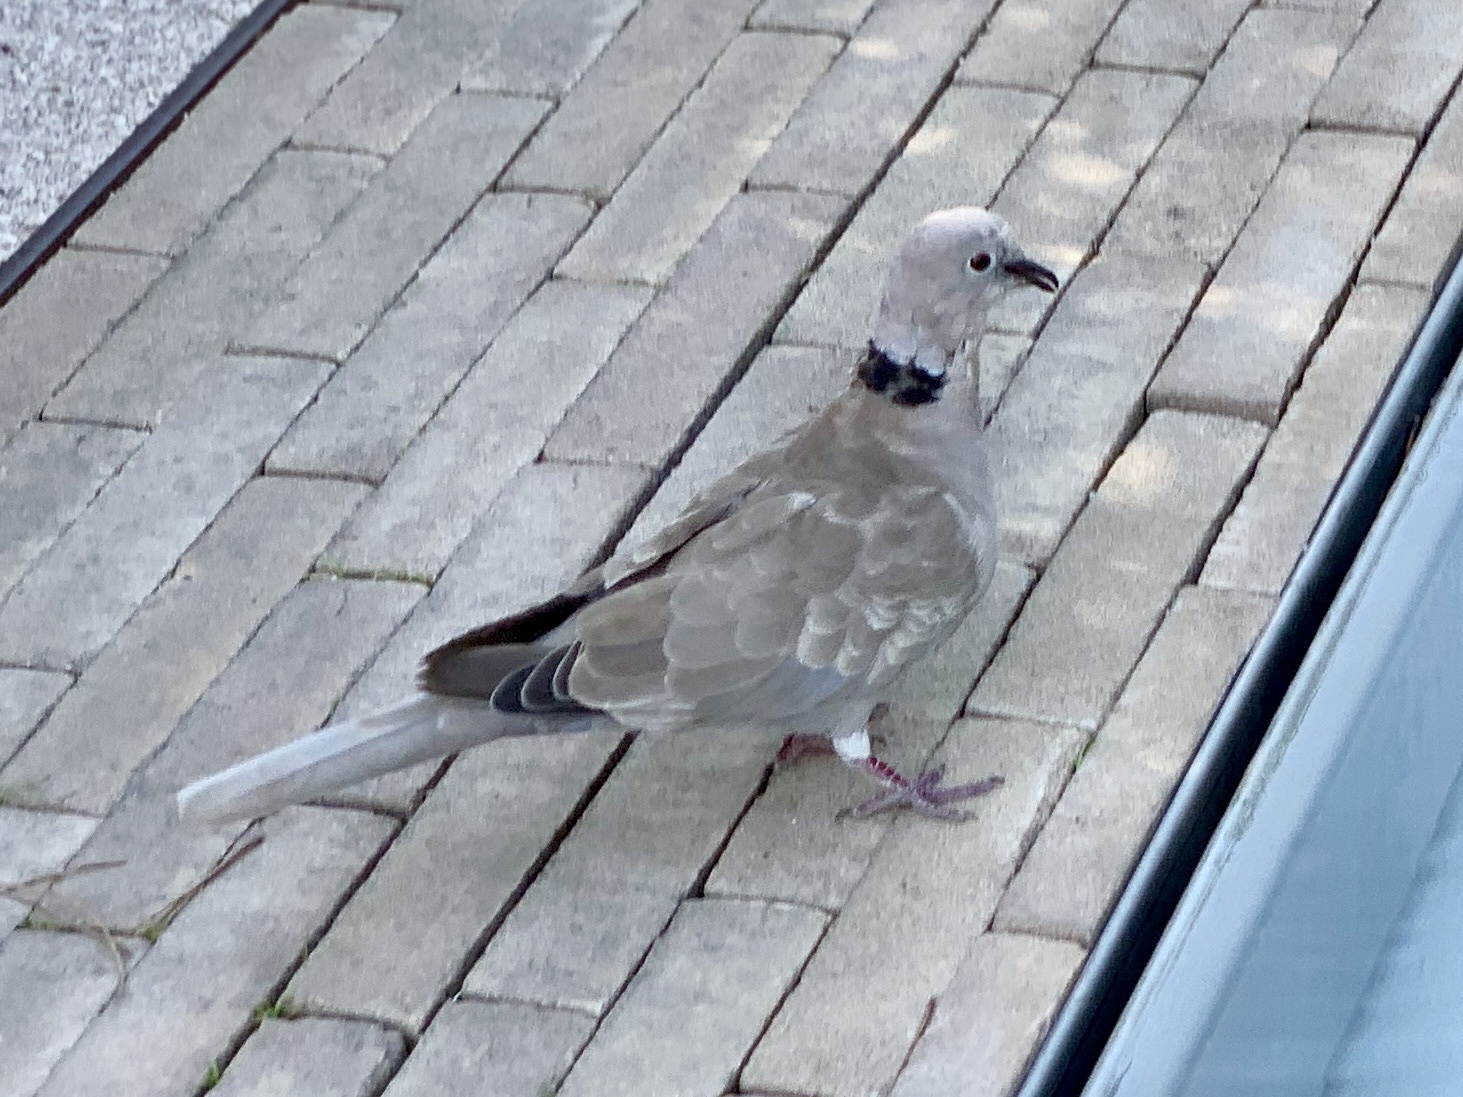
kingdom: Animalia
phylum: Chordata
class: Aves
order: Columbiformes
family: Columbidae
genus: Streptopelia
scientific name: Streptopelia decaocto
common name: Eurasian collared dove
